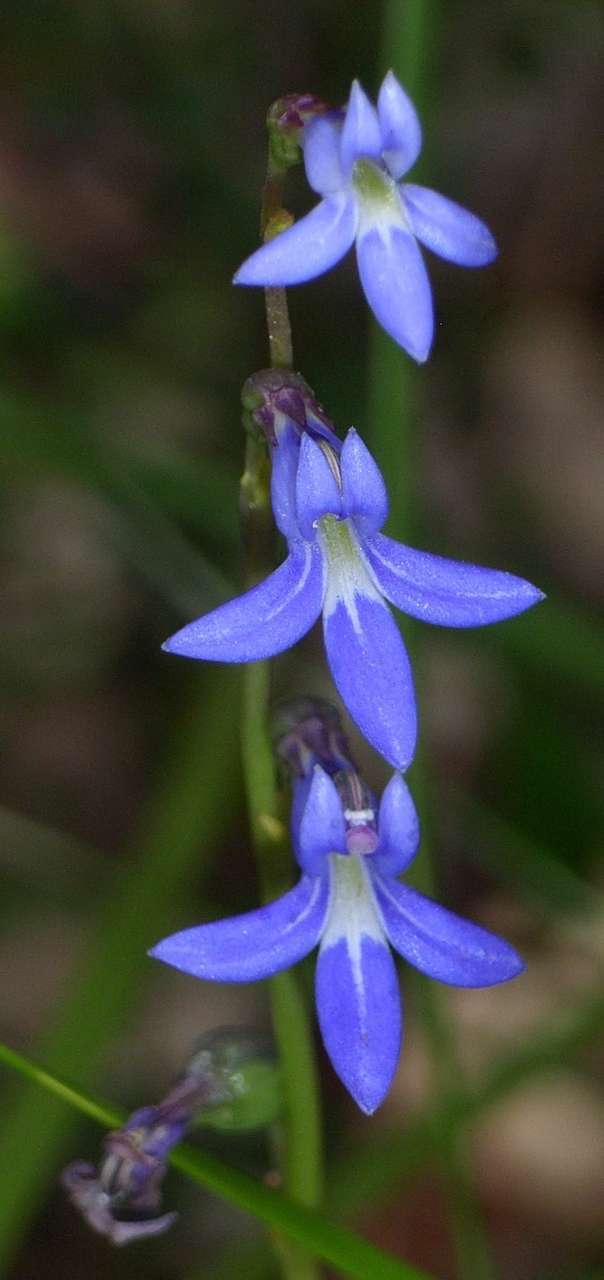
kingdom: Plantae
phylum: Tracheophyta
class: Magnoliopsida
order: Asterales
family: Campanulaceae
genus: Lobelia
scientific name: Lobelia gibbosa
